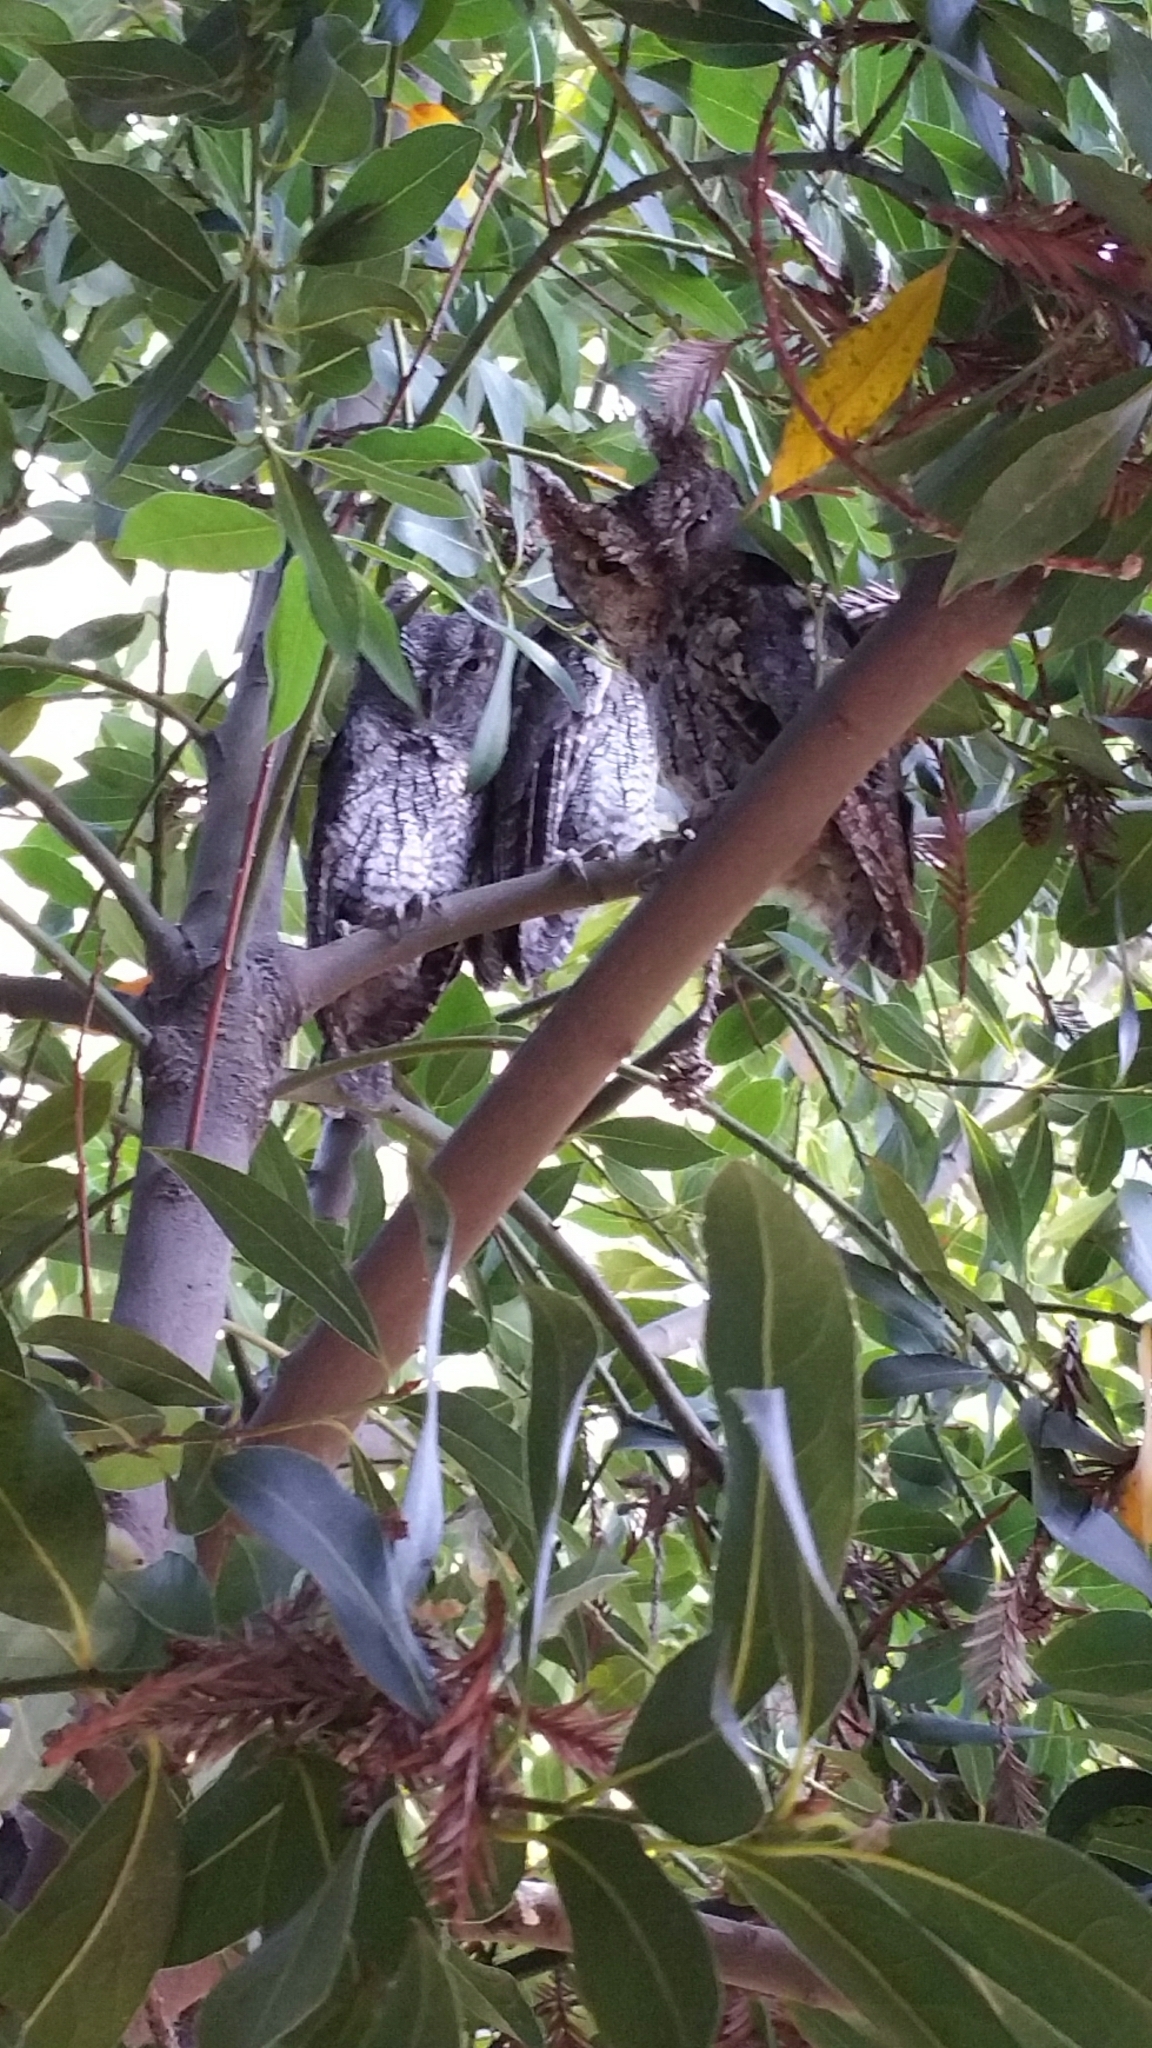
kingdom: Animalia
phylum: Chordata
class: Aves
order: Strigiformes
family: Strigidae
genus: Megascops
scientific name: Megascops kennicottii
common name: Western screech-owl
